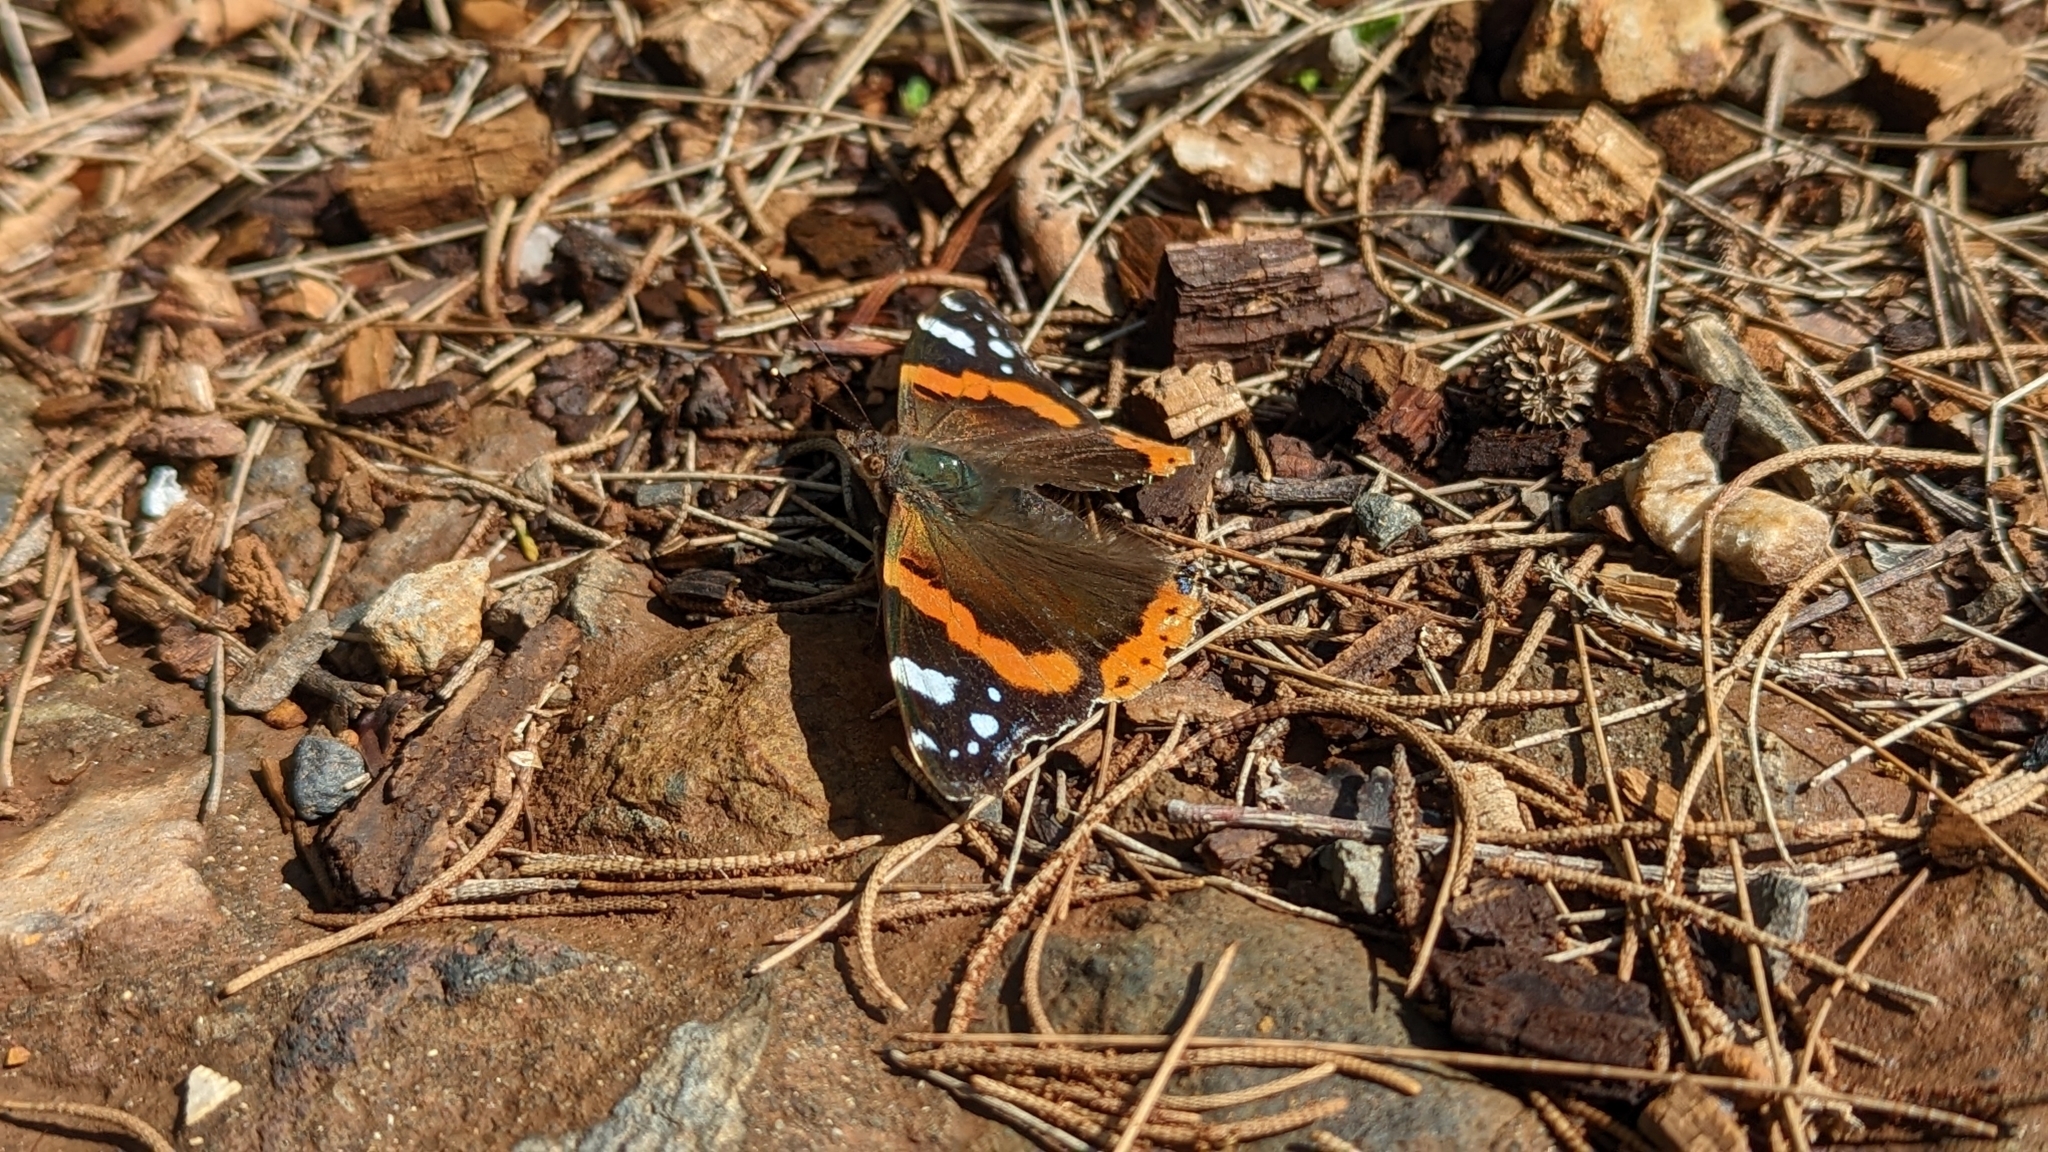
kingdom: Animalia
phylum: Arthropoda
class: Insecta
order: Lepidoptera
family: Nymphalidae
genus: Vanessa
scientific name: Vanessa atalanta
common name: Red admiral
